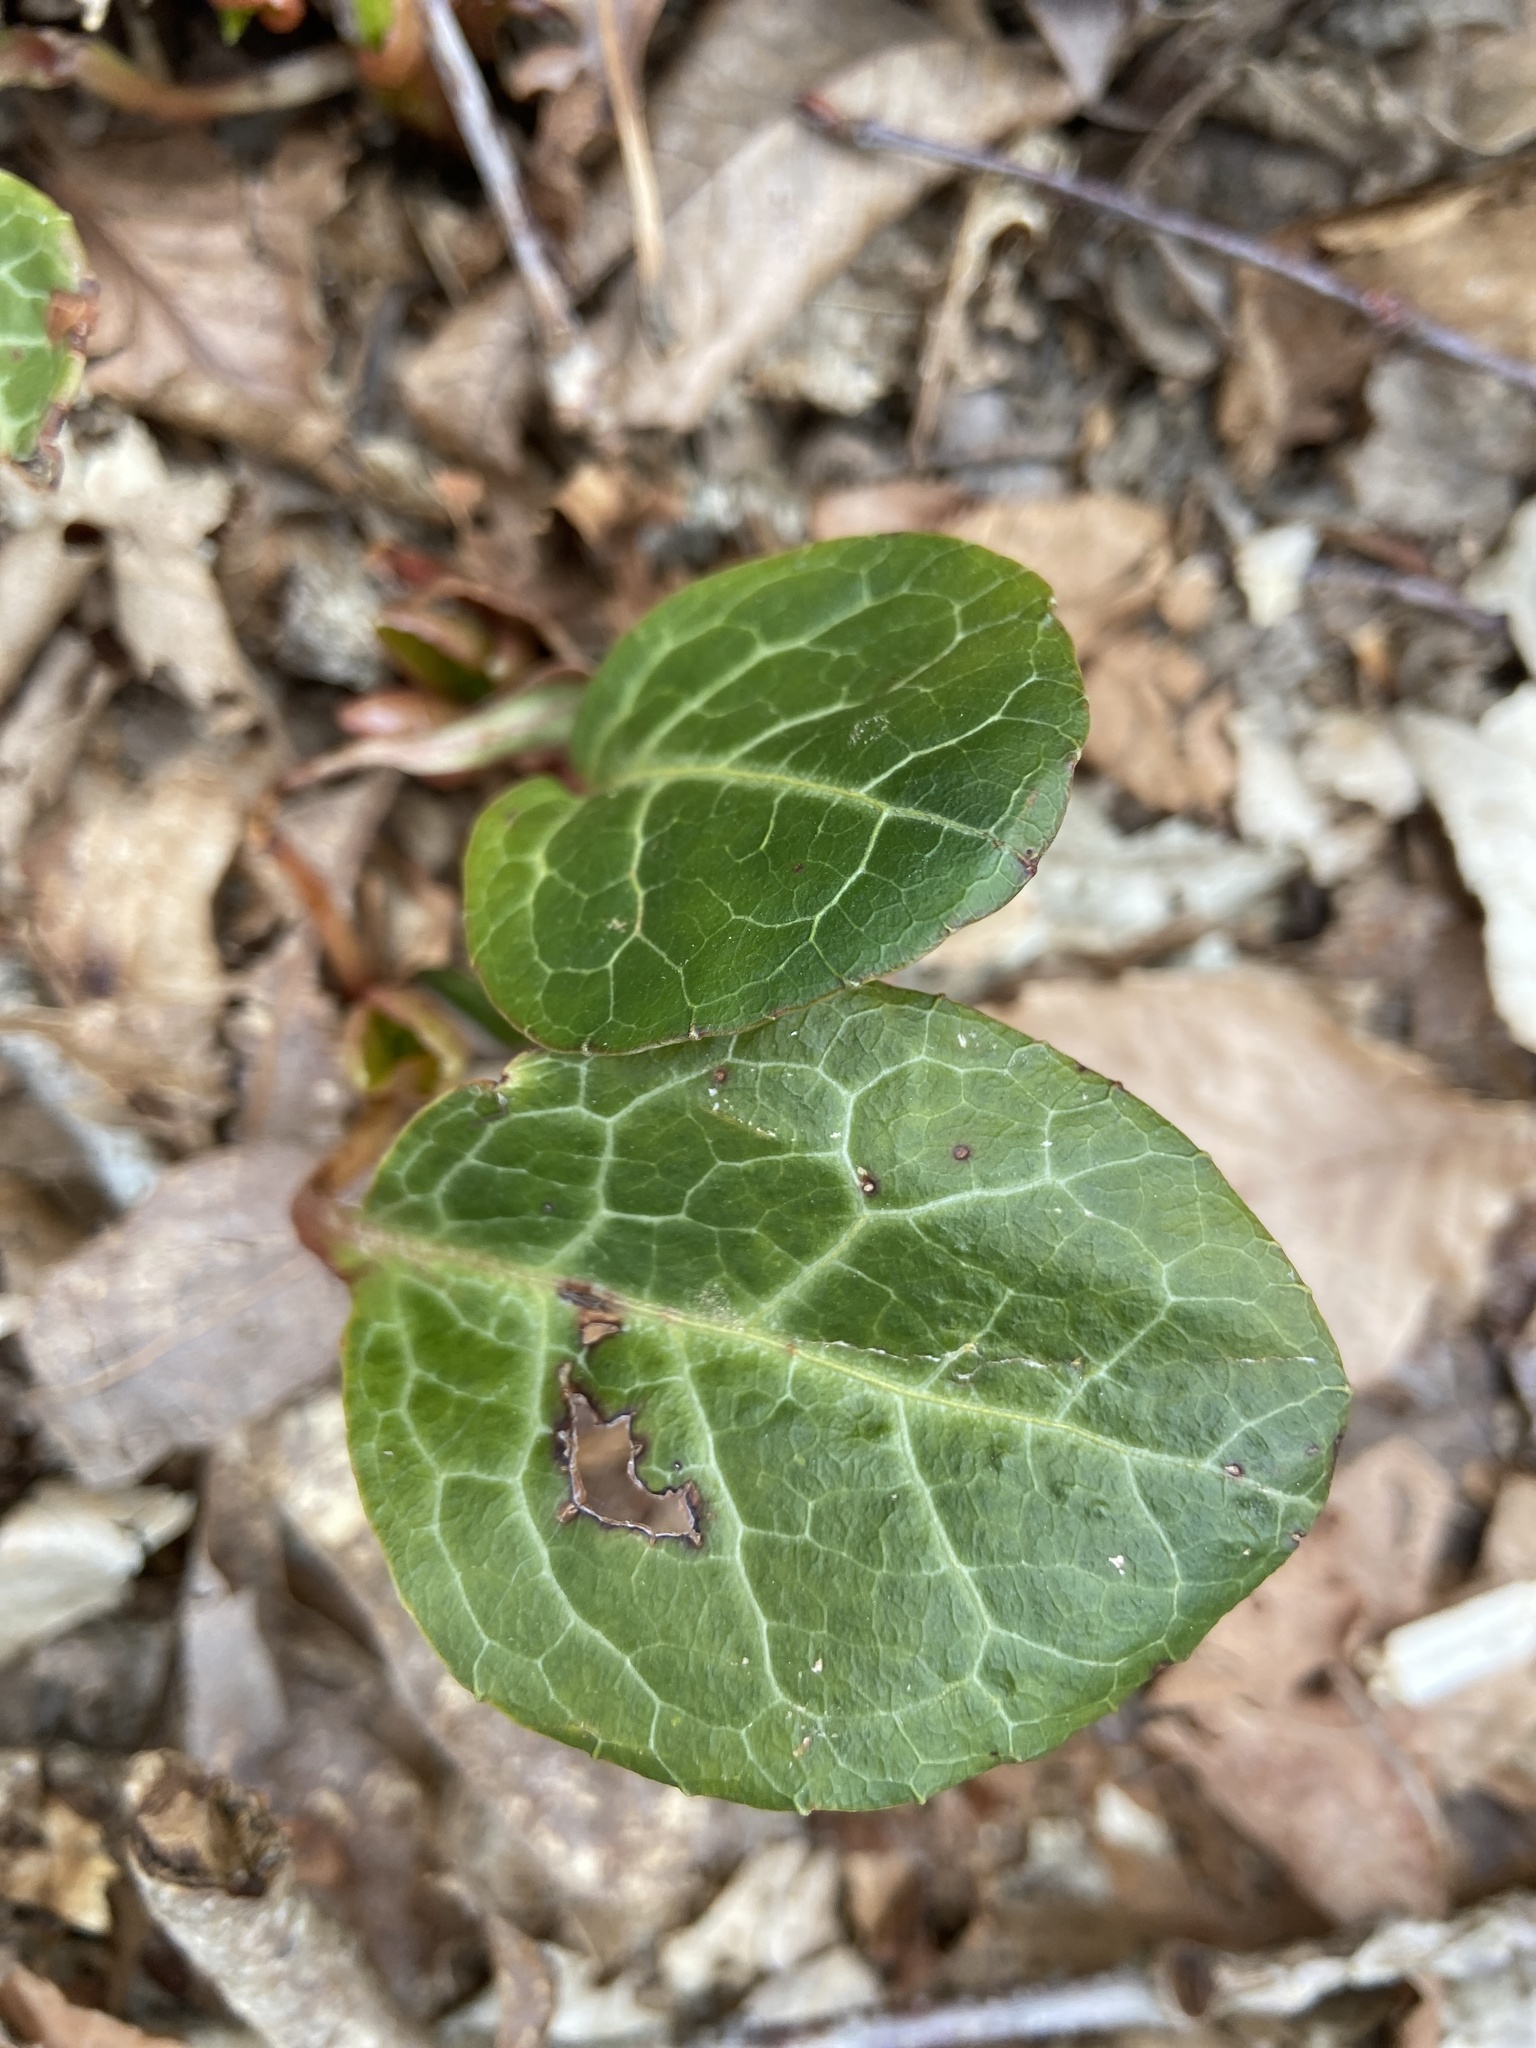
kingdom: Plantae
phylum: Tracheophyta
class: Magnoliopsida
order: Ericales
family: Ericaceae
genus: Pyrola
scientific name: Pyrola americana
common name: American wintergreen
